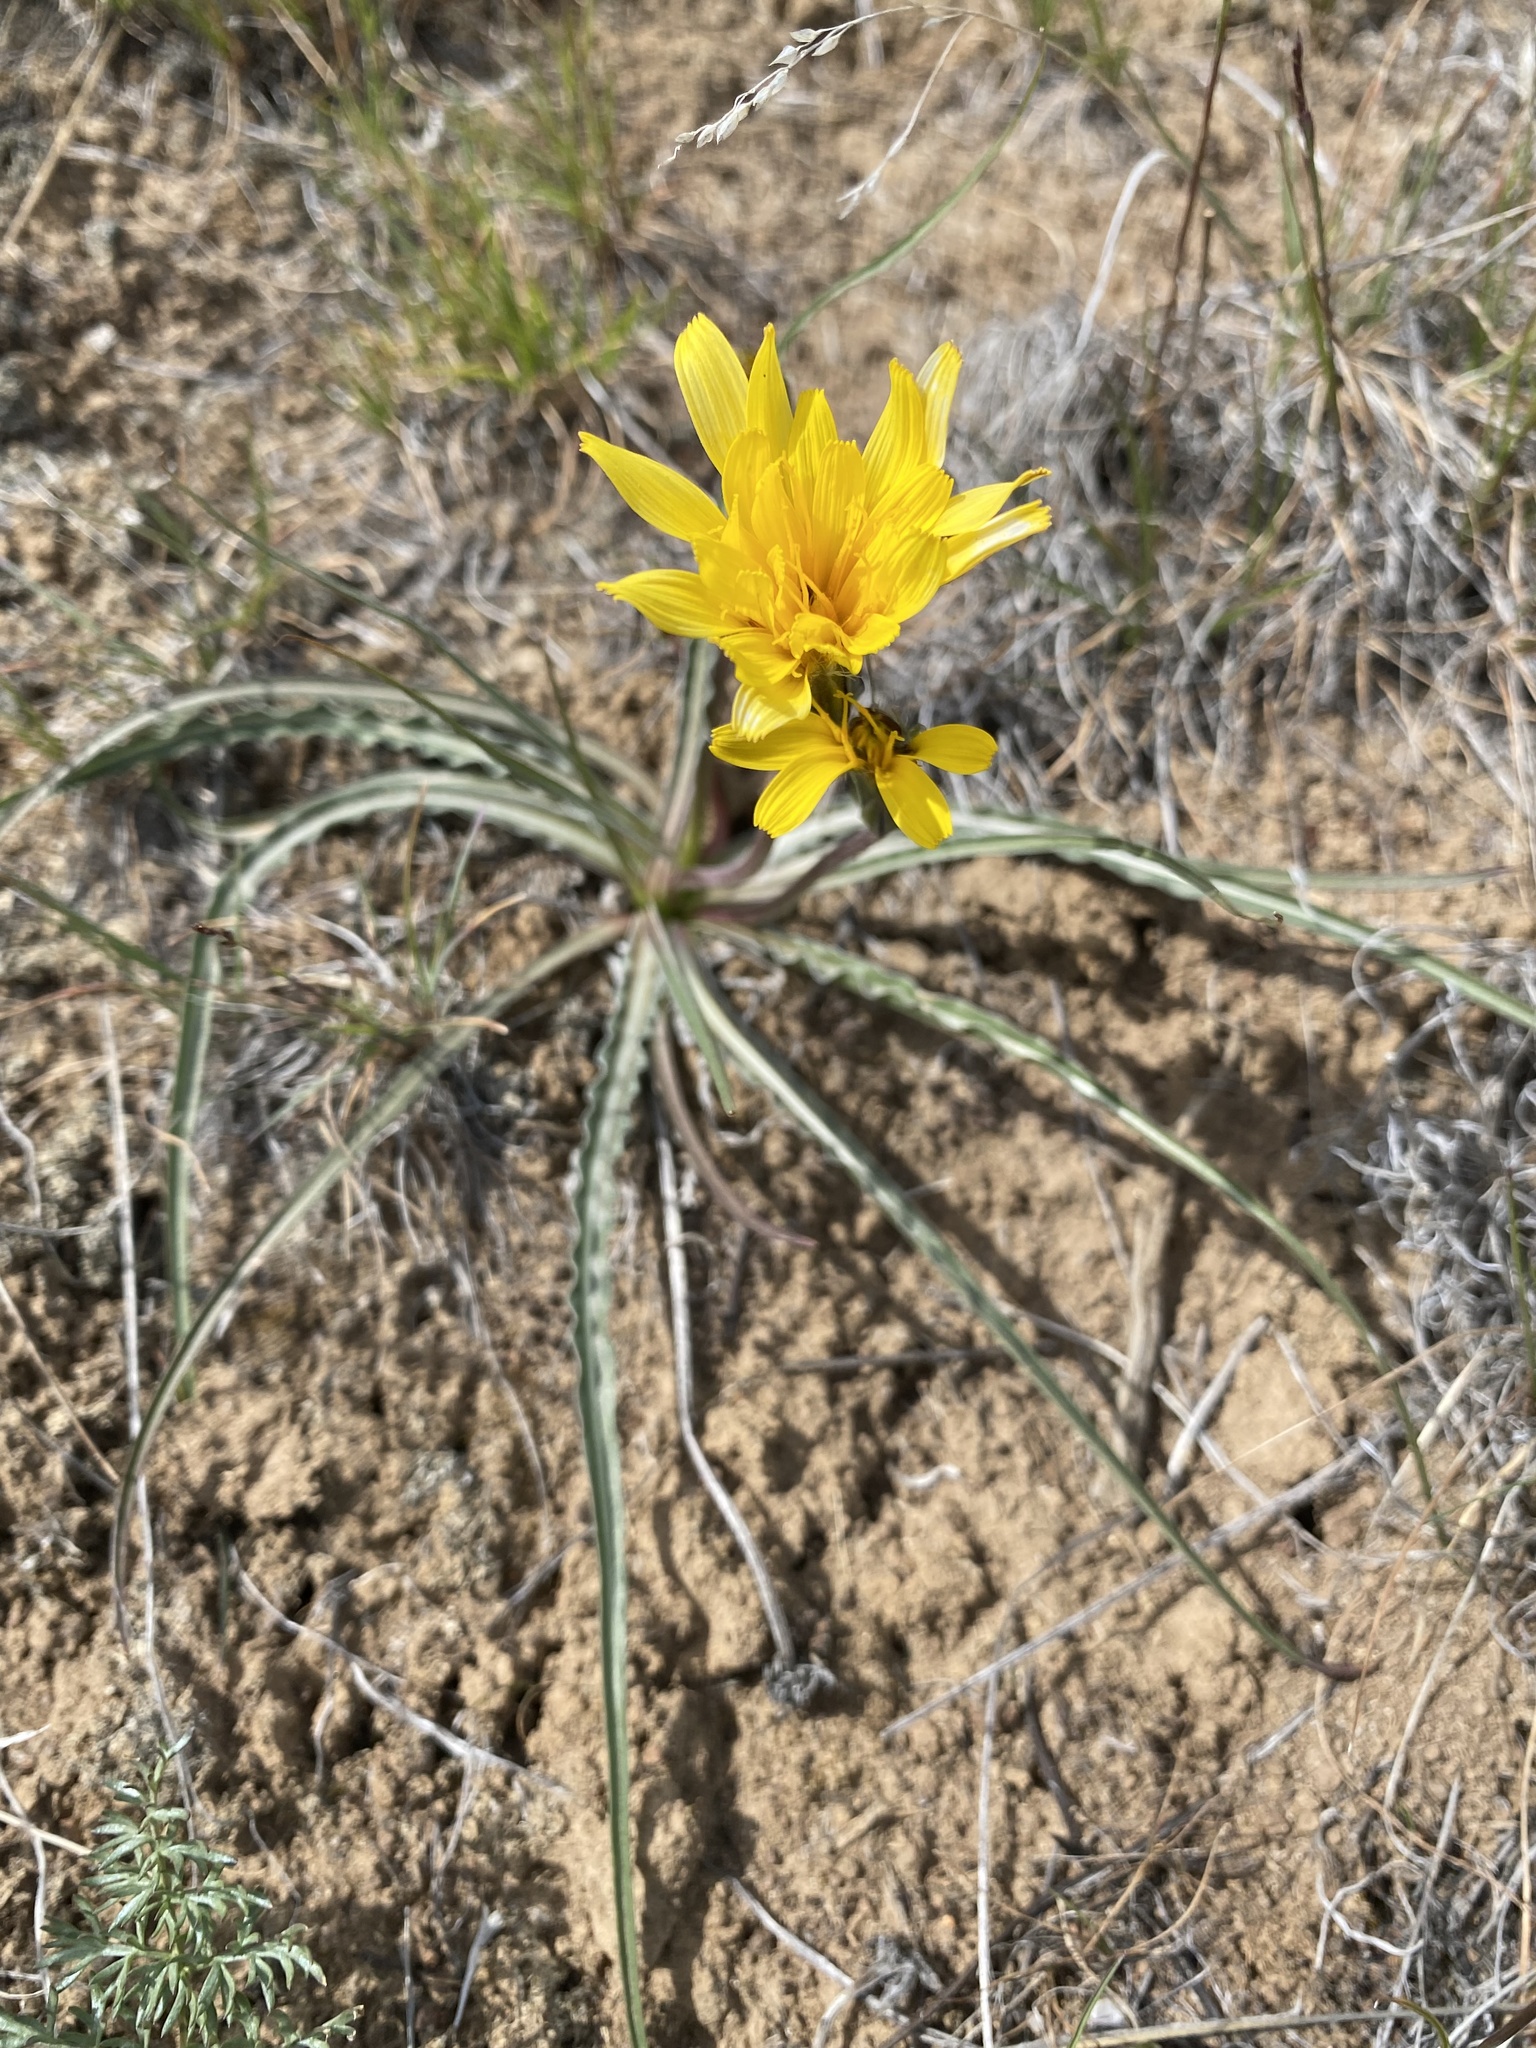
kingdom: Plantae
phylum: Tracheophyta
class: Magnoliopsida
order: Asterales
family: Asteraceae
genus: Microseris
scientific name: Microseris troximoides
